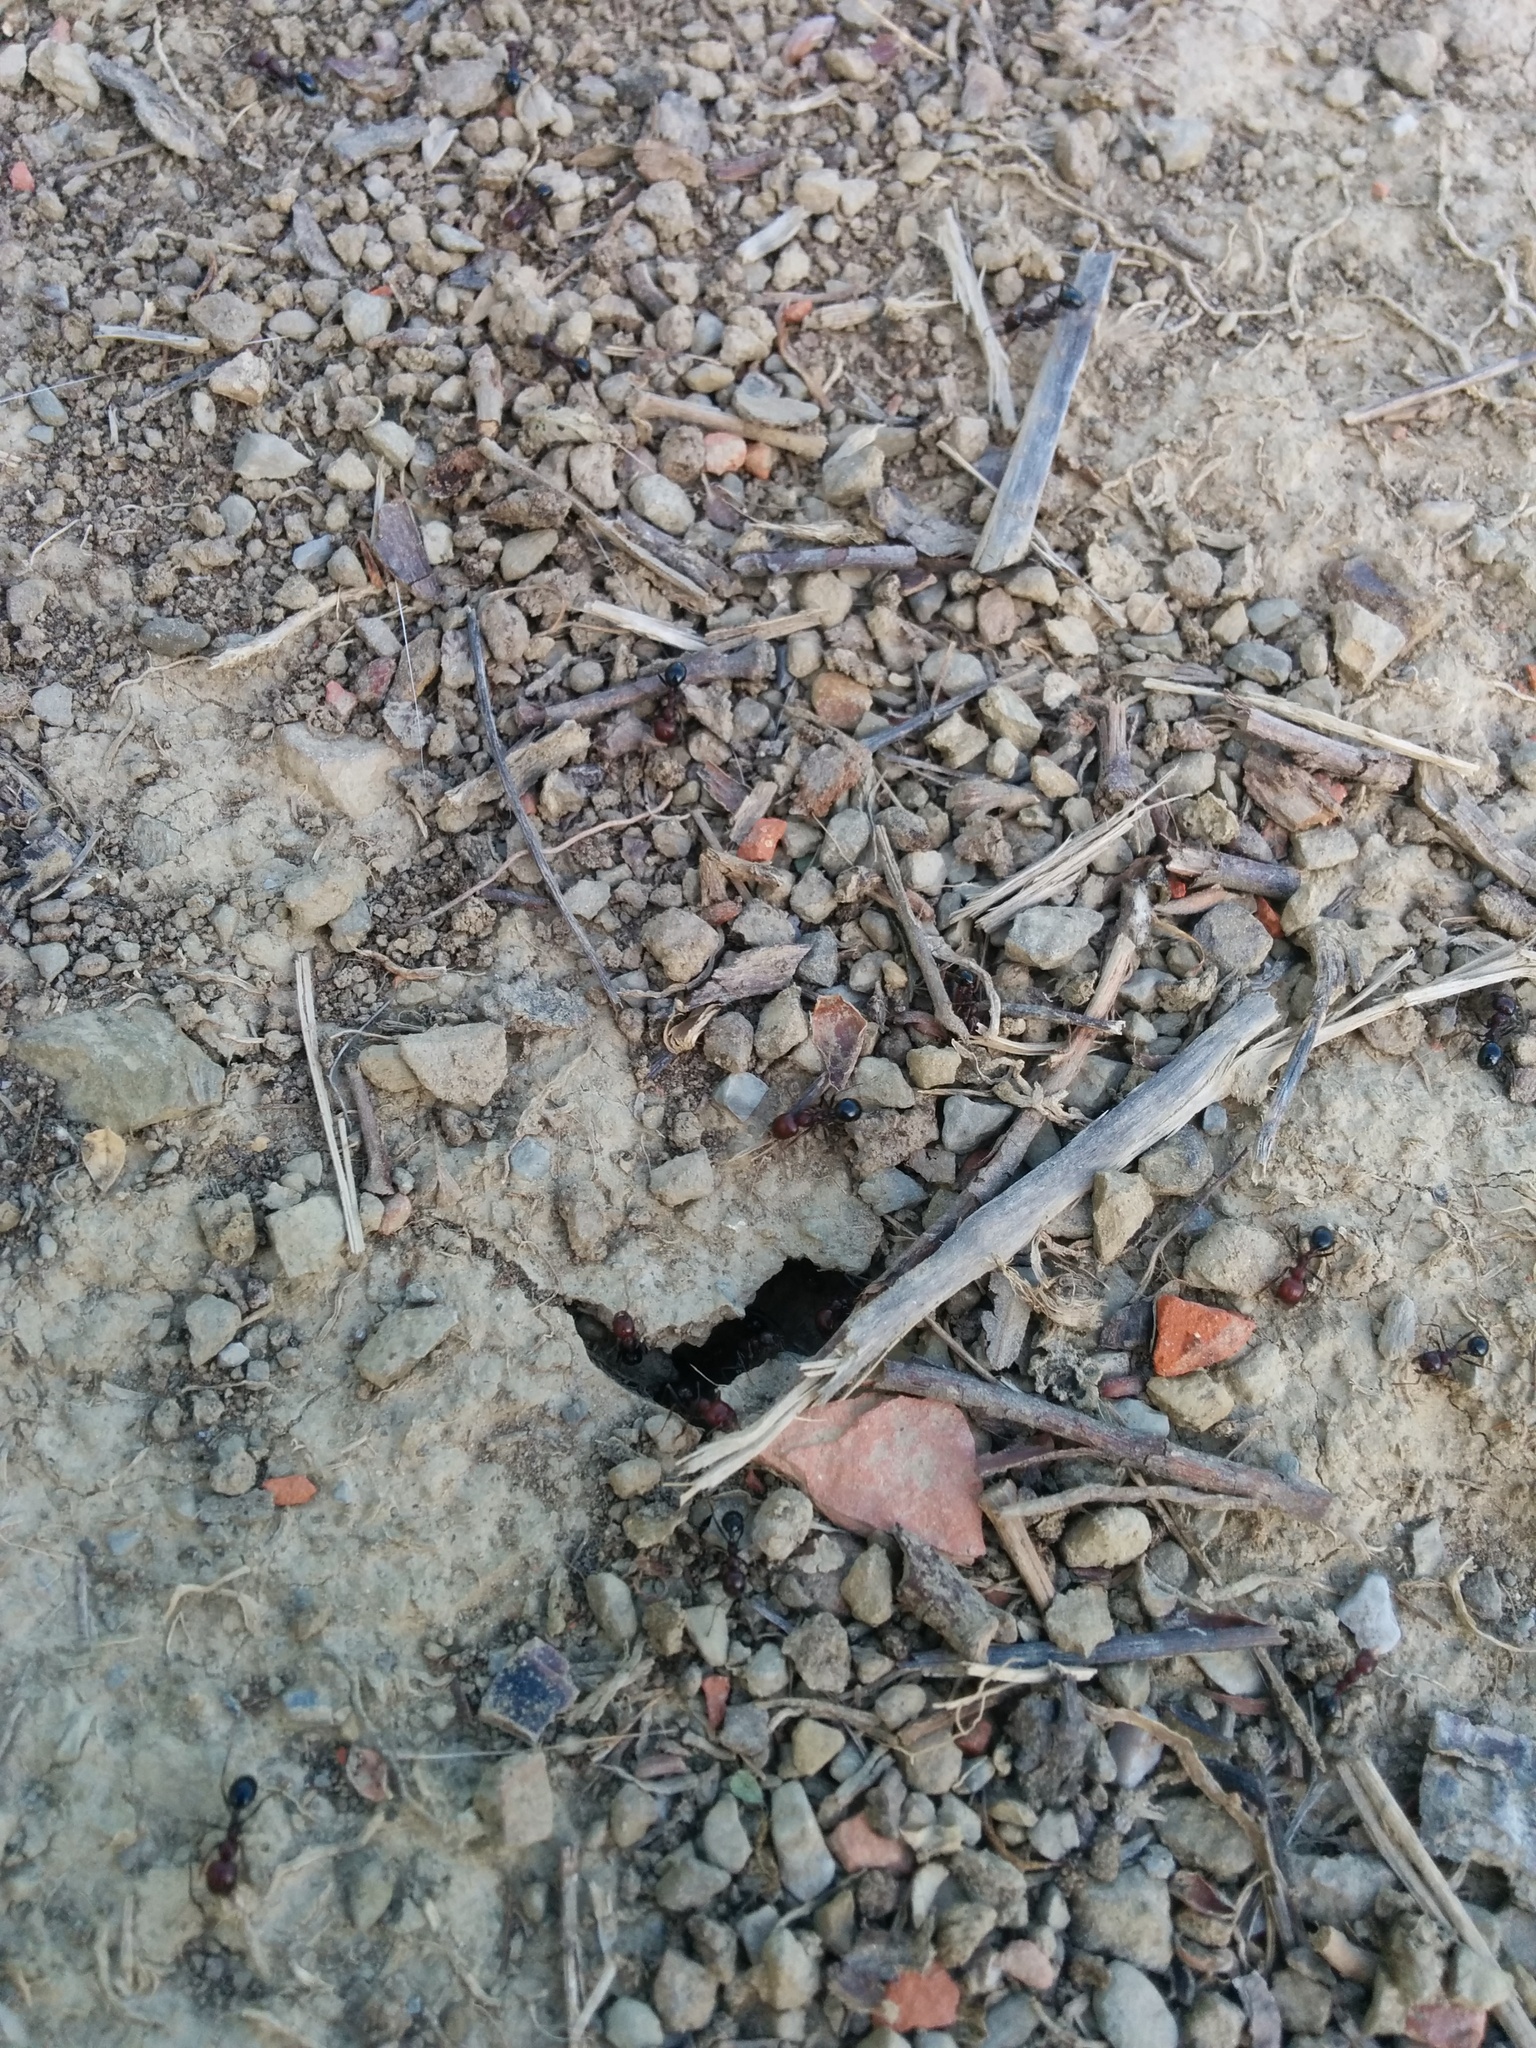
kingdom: Animalia
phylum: Arthropoda
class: Insecta
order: Hymenoptera
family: Formicidae
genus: Messor
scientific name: Messor minor
